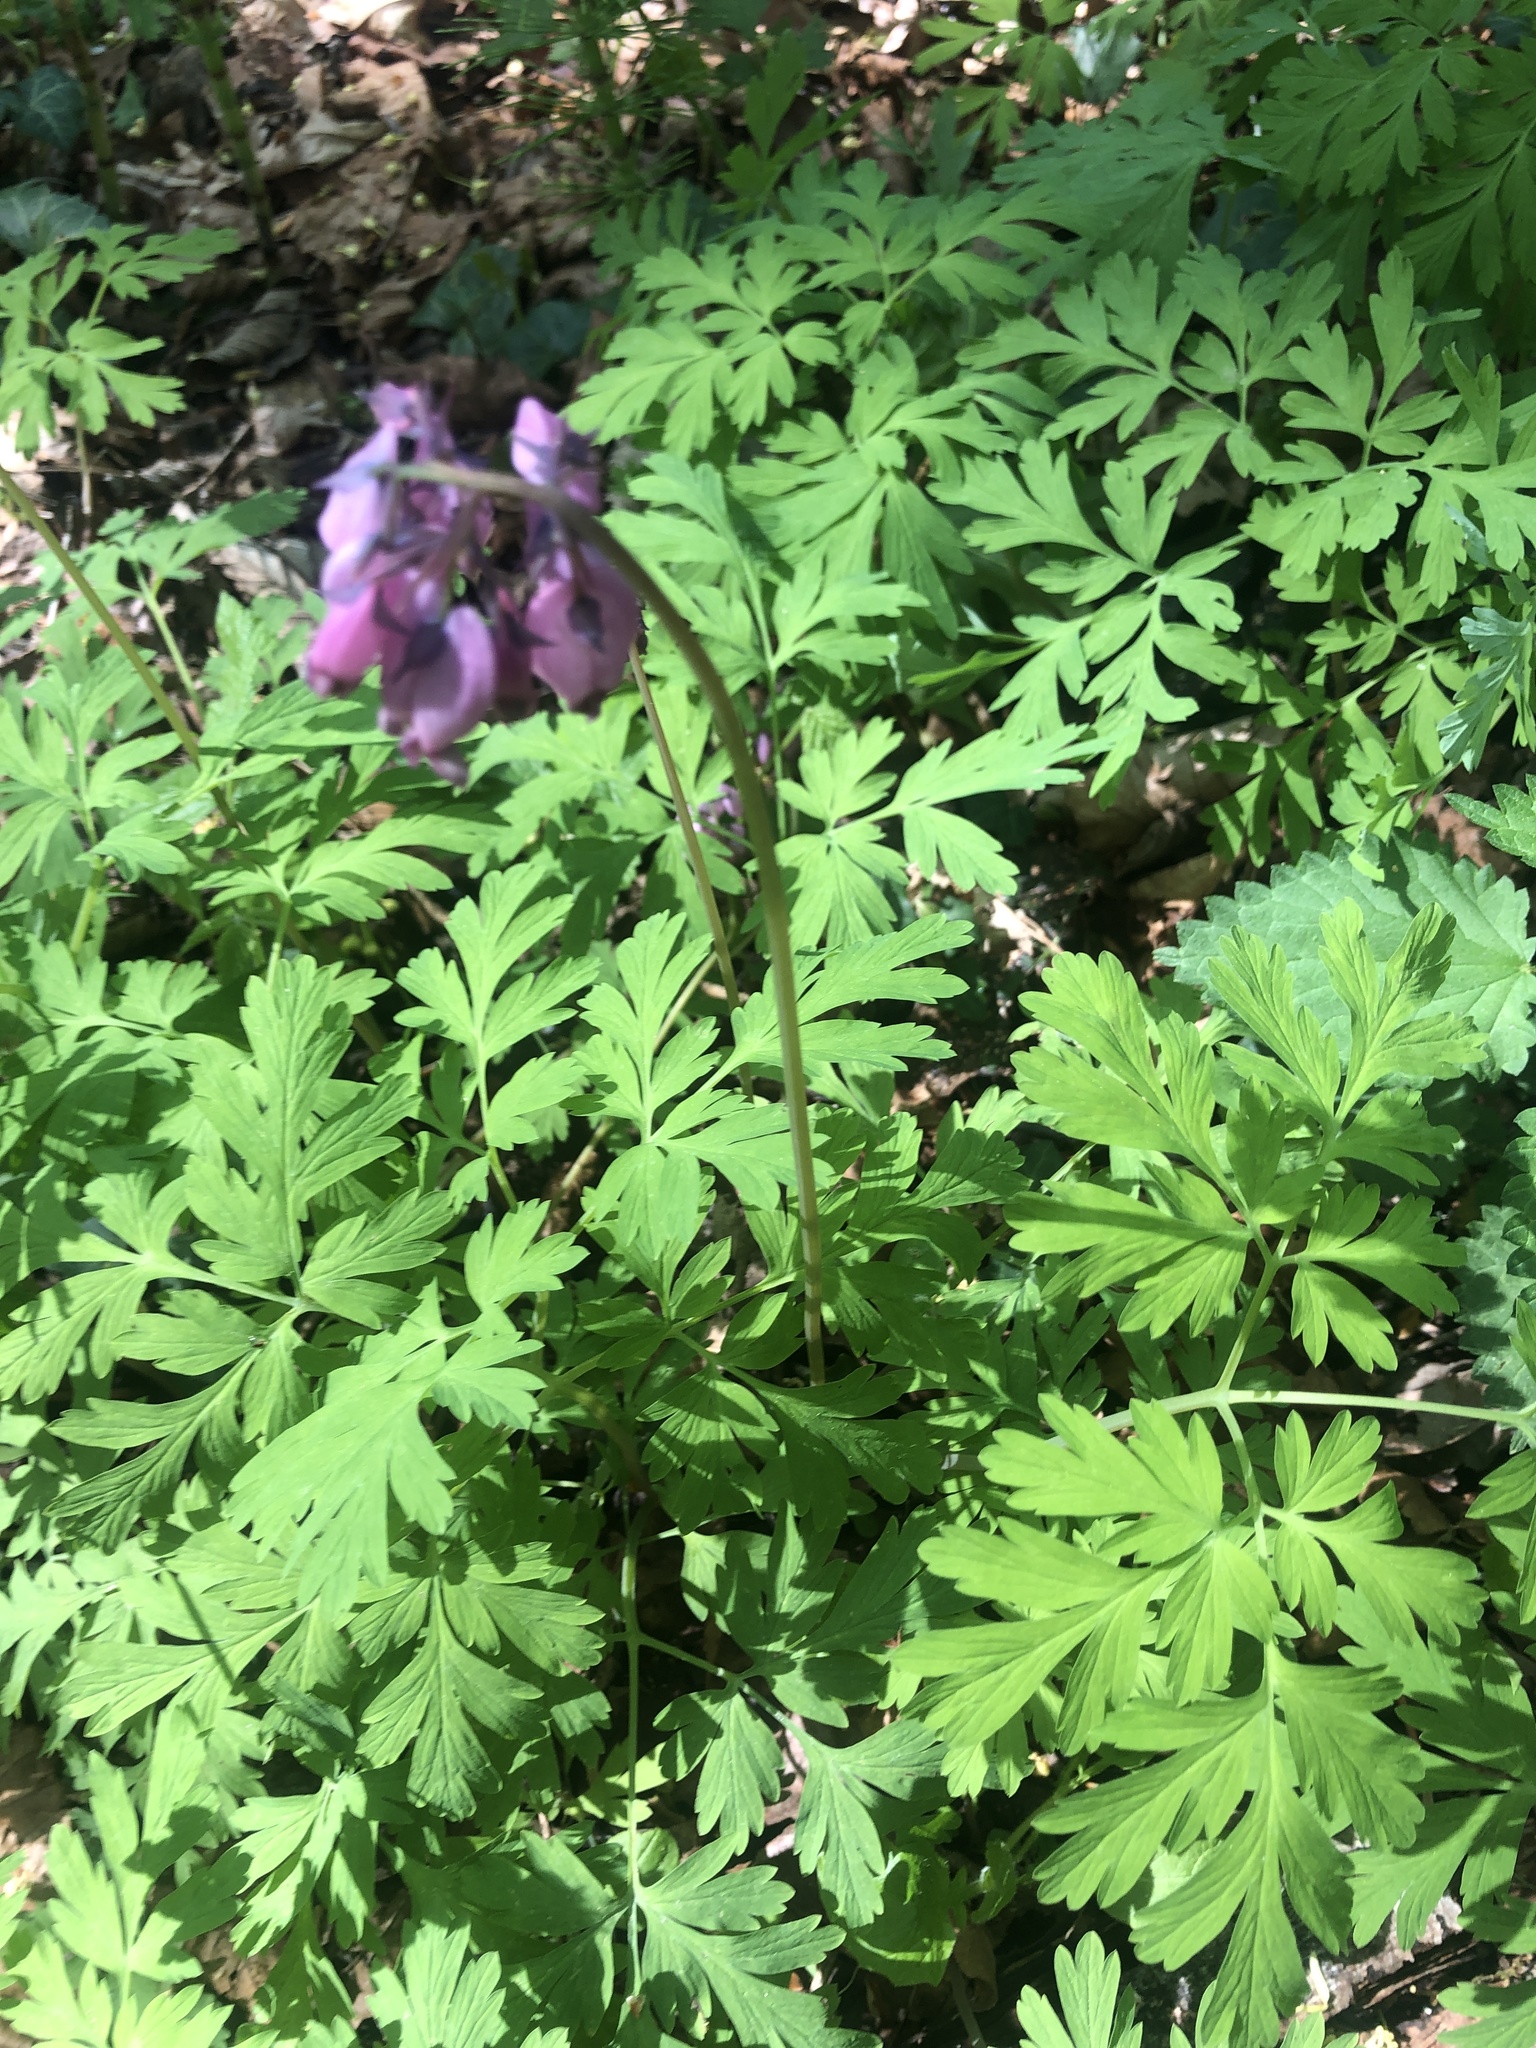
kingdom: Plantae
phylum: Tracheophyta
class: Magnoliopsida
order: Ranunculales
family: Papaveraceae
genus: Dicentra
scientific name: Dicentra formosa
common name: Bleeding-heart
